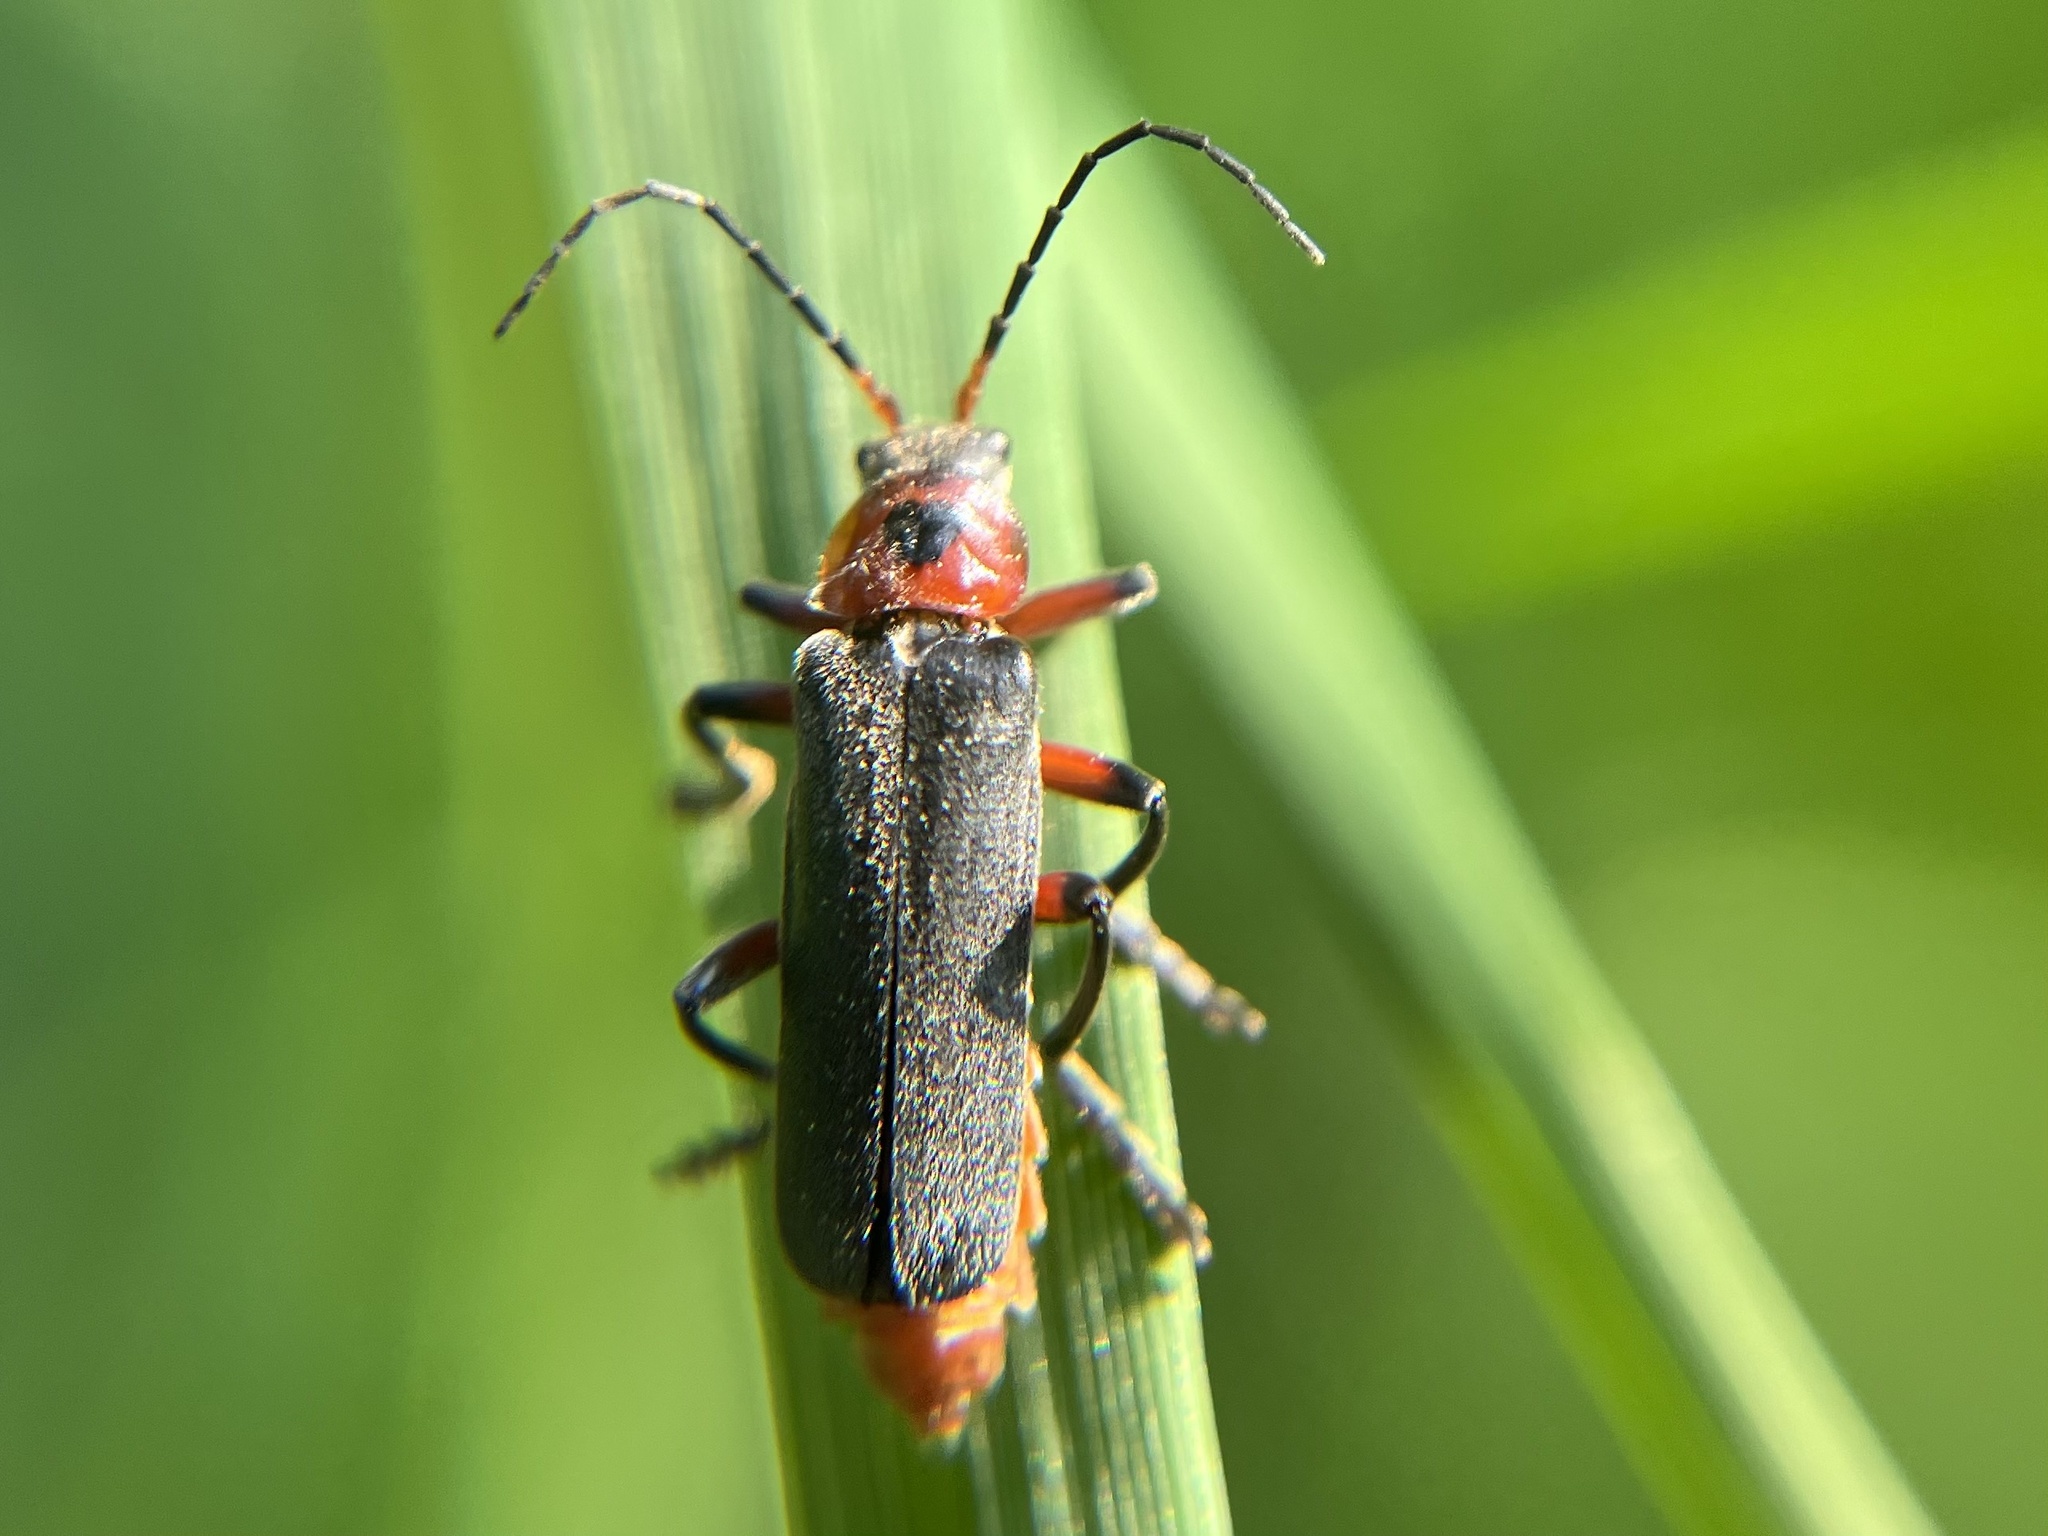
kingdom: Animalia
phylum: Arthropoda
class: Insecta
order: Coleoptera
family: Cantharidae
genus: Cantharis
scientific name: Cantharis rustica
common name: Soldier beetle
